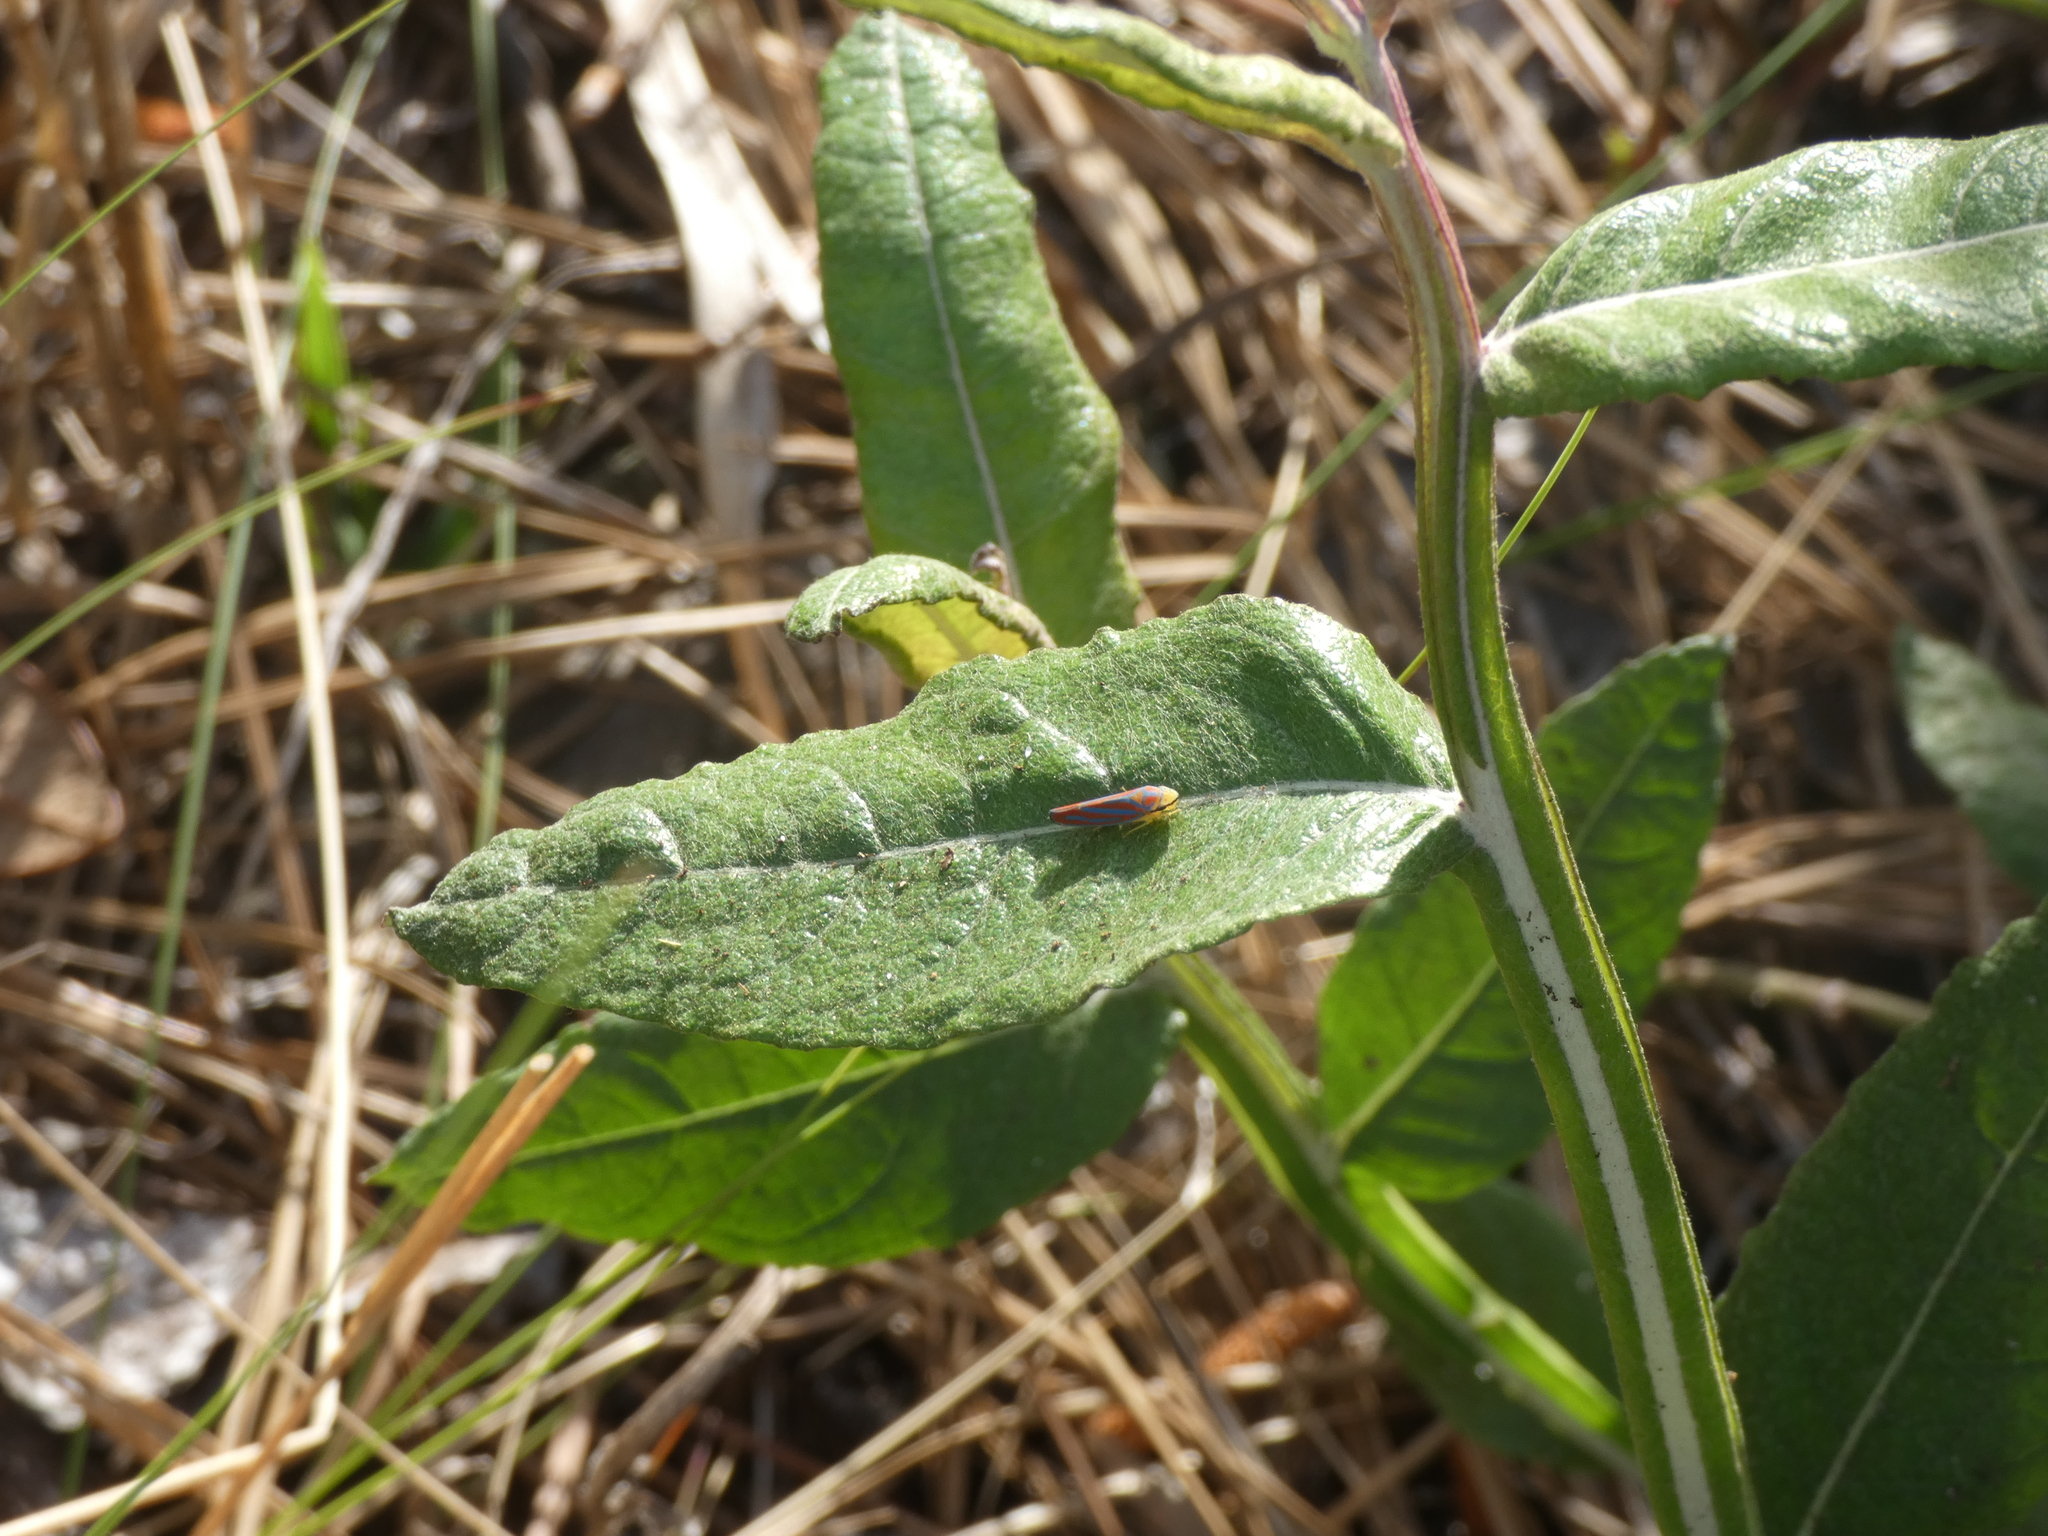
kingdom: Animalia
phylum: Arthropoda
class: Insecta
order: Hemiptera
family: Cicadellidae
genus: Graphocephala
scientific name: Graphocephala coccinea
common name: Candy-striped leafhopper
